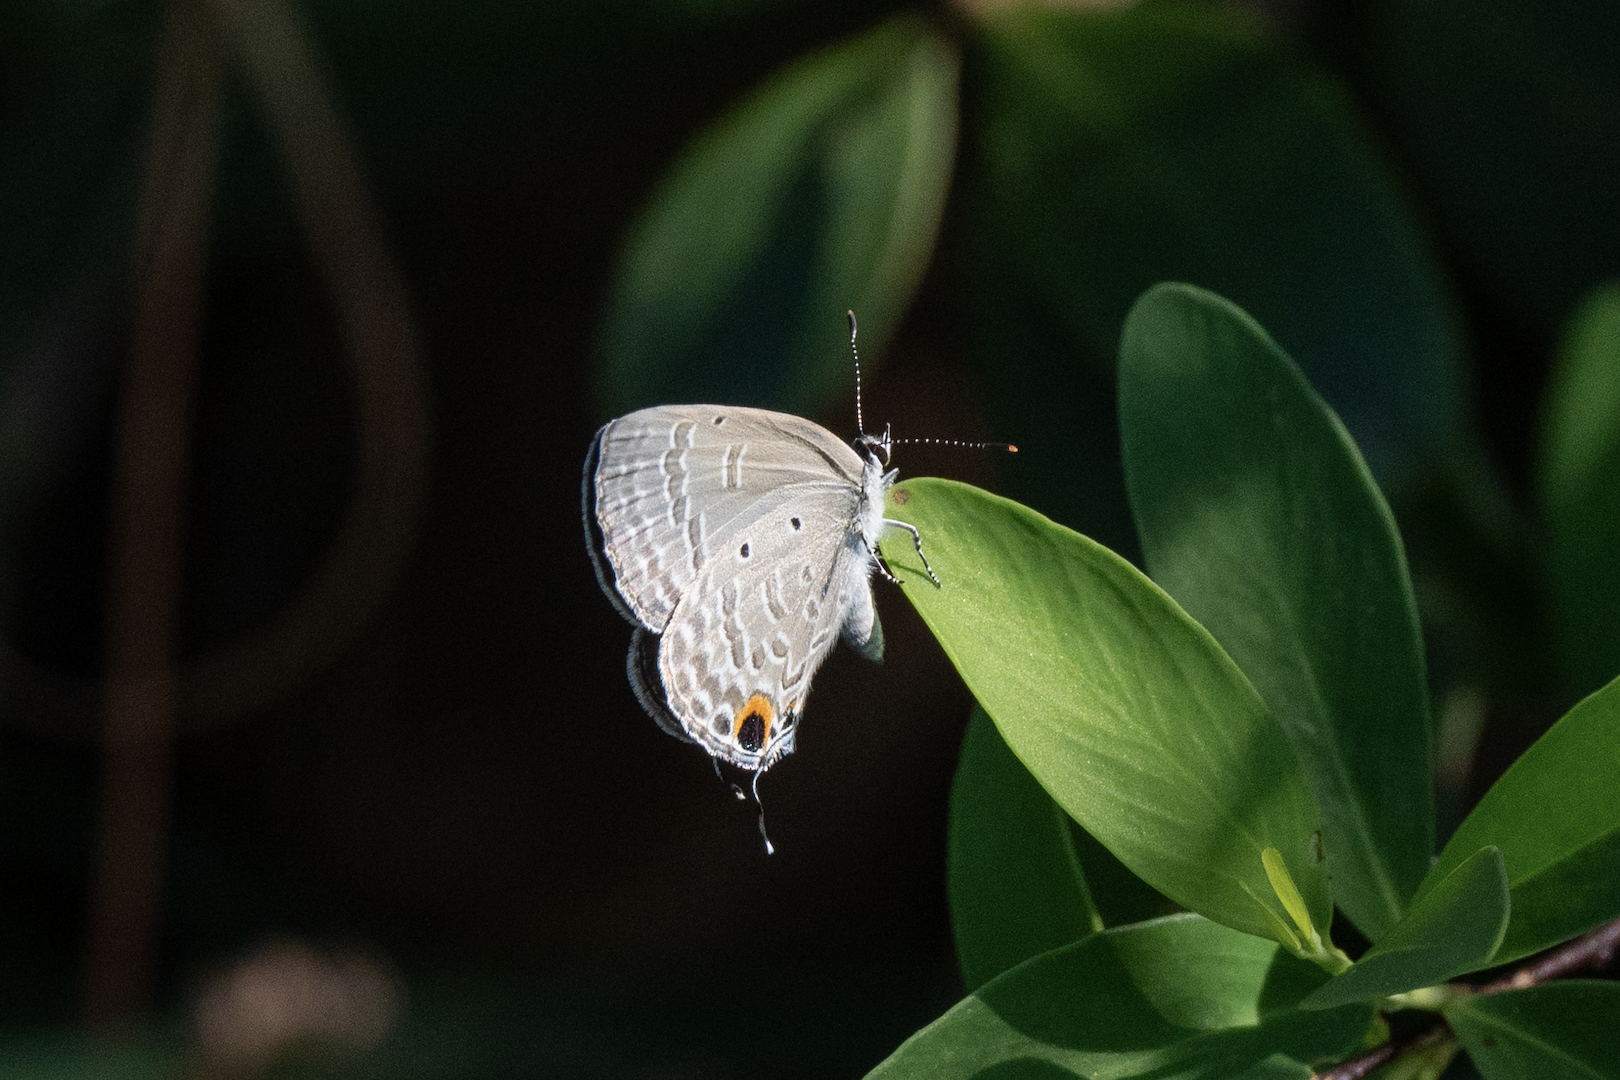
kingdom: Animalia
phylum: Arthropoda
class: Insecta
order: Lepidoptera
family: Lycaenidae
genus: Catochrysops
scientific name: Catochrysops strabo
